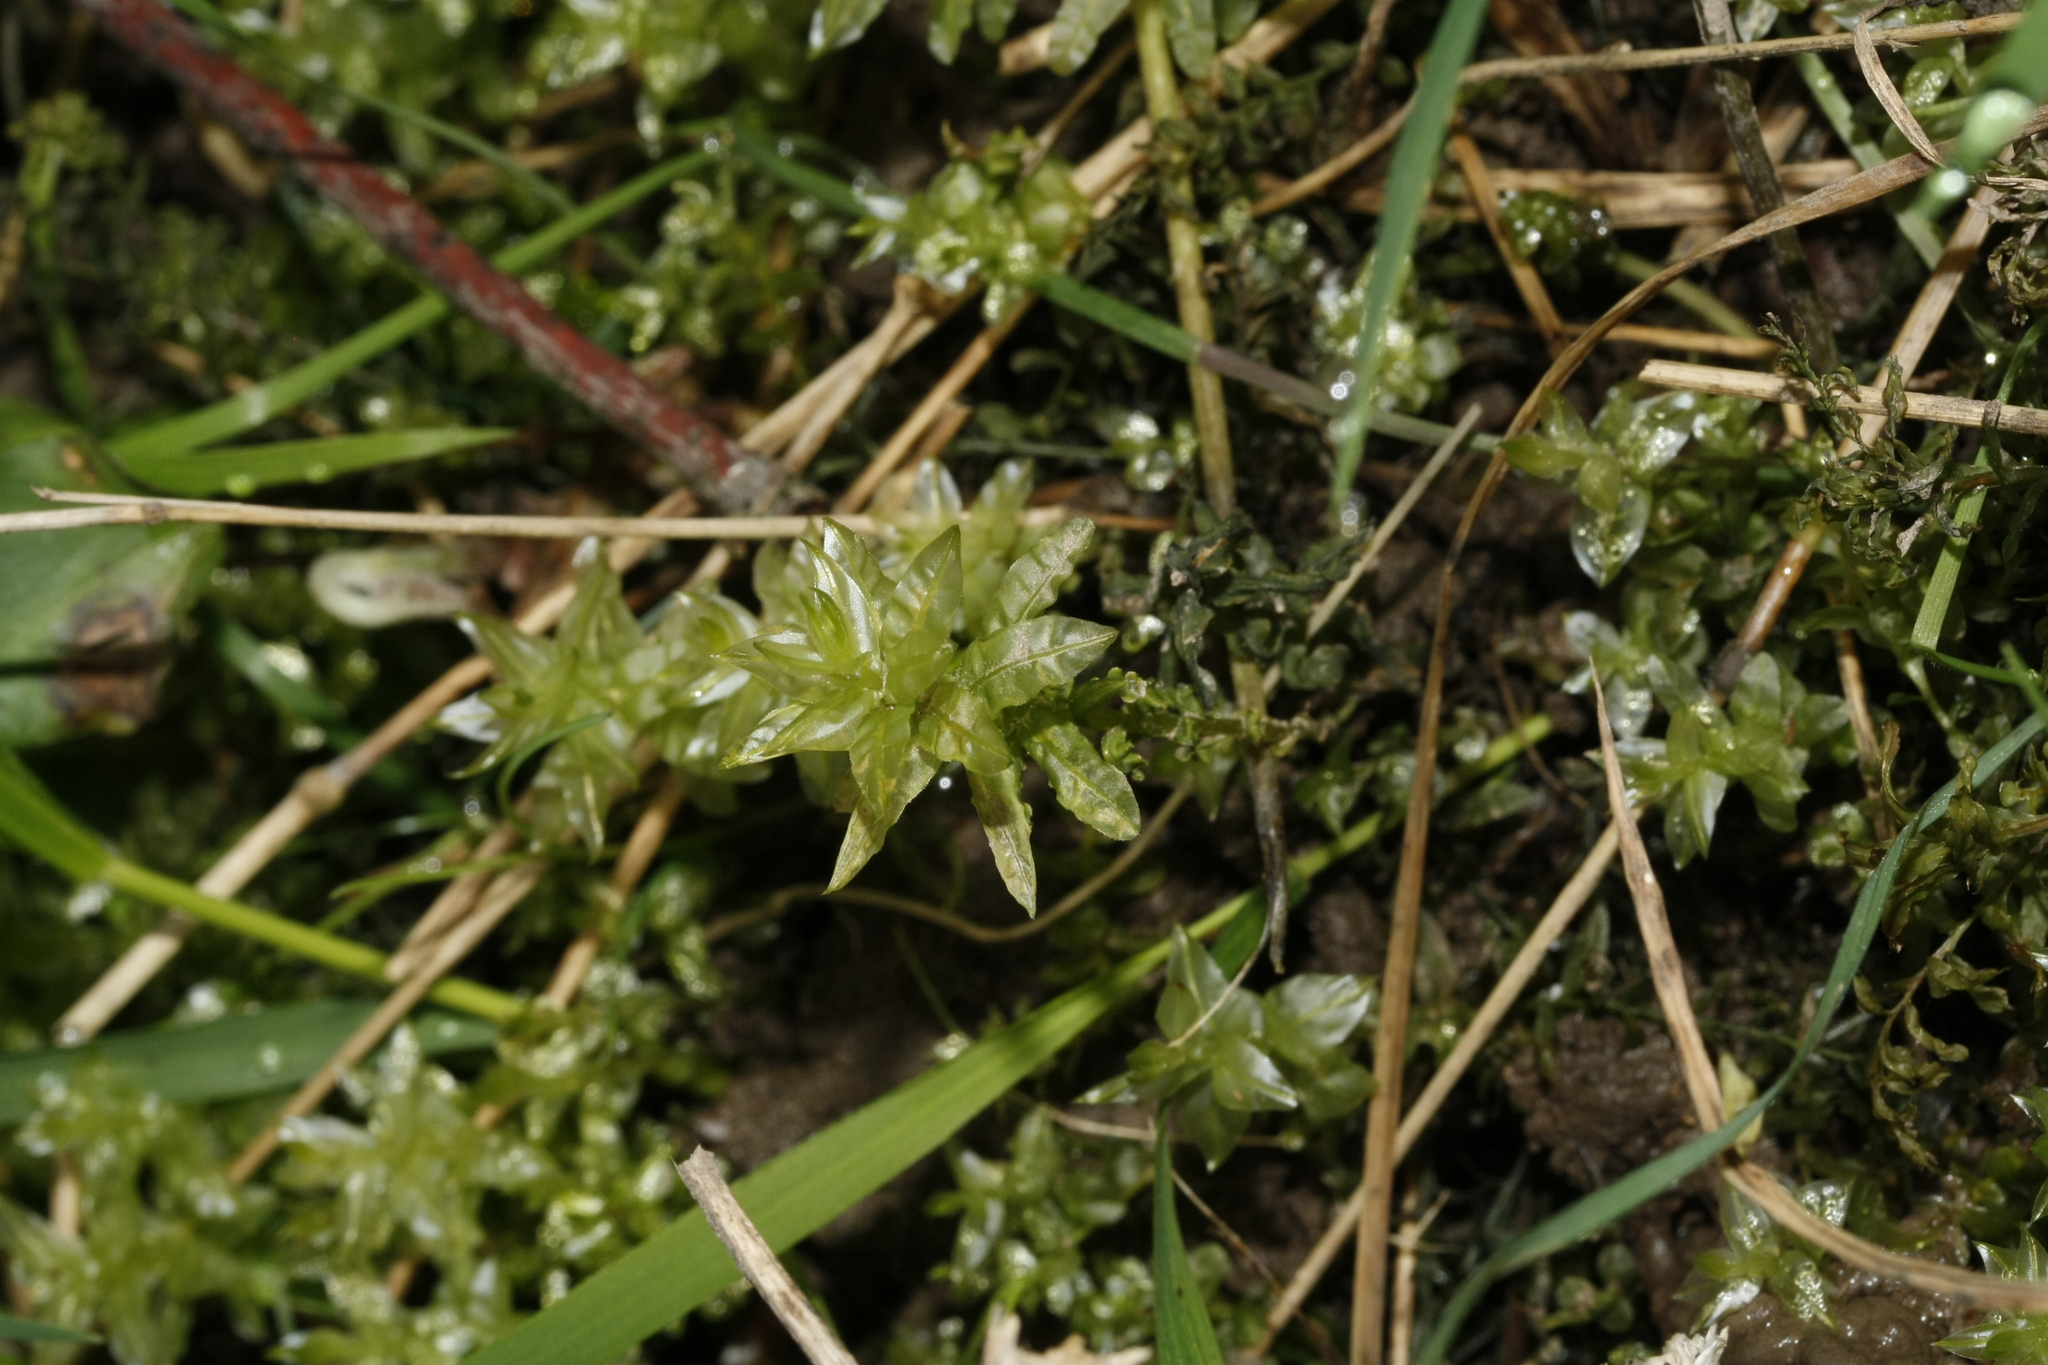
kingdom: Plantae
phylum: Bryophyta
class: Bryopsida
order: Bryales
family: Mniaceae
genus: Plagiomnium
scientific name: Plagiomnium undulatum
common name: Hart's-tongue thyme-moss
